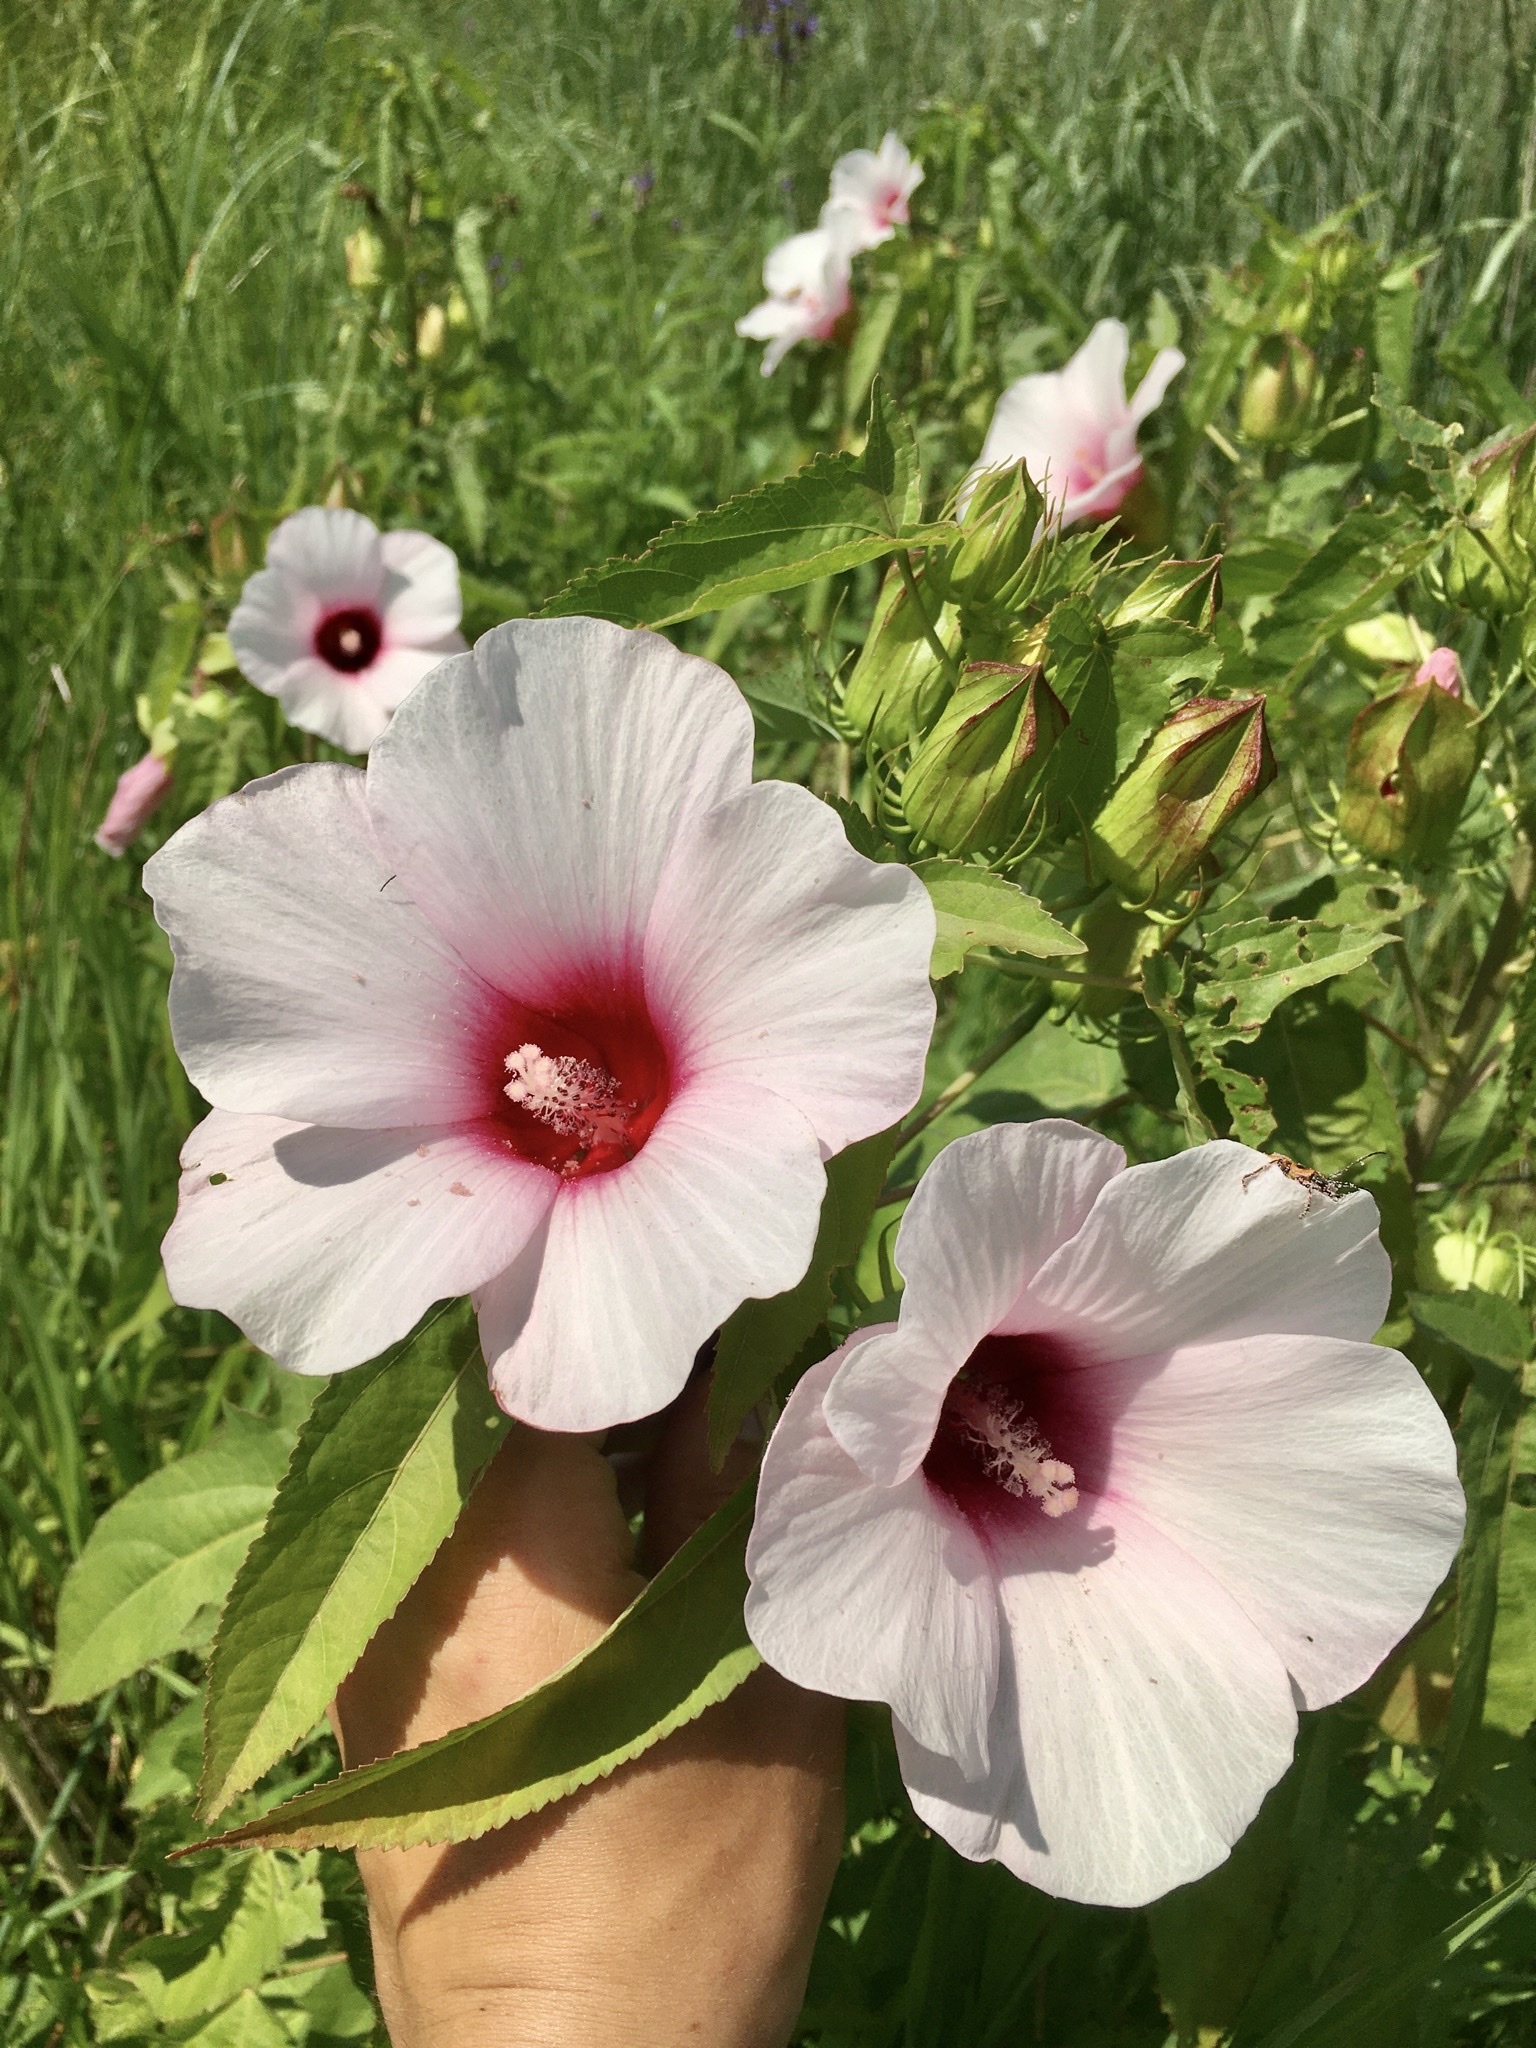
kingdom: Plantae
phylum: Tracheophyta
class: Magnoliopsida
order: Malvales
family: Malvaceae
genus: Hibiscus
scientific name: Hibiscus laevis
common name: Scarlet rose-mallow
